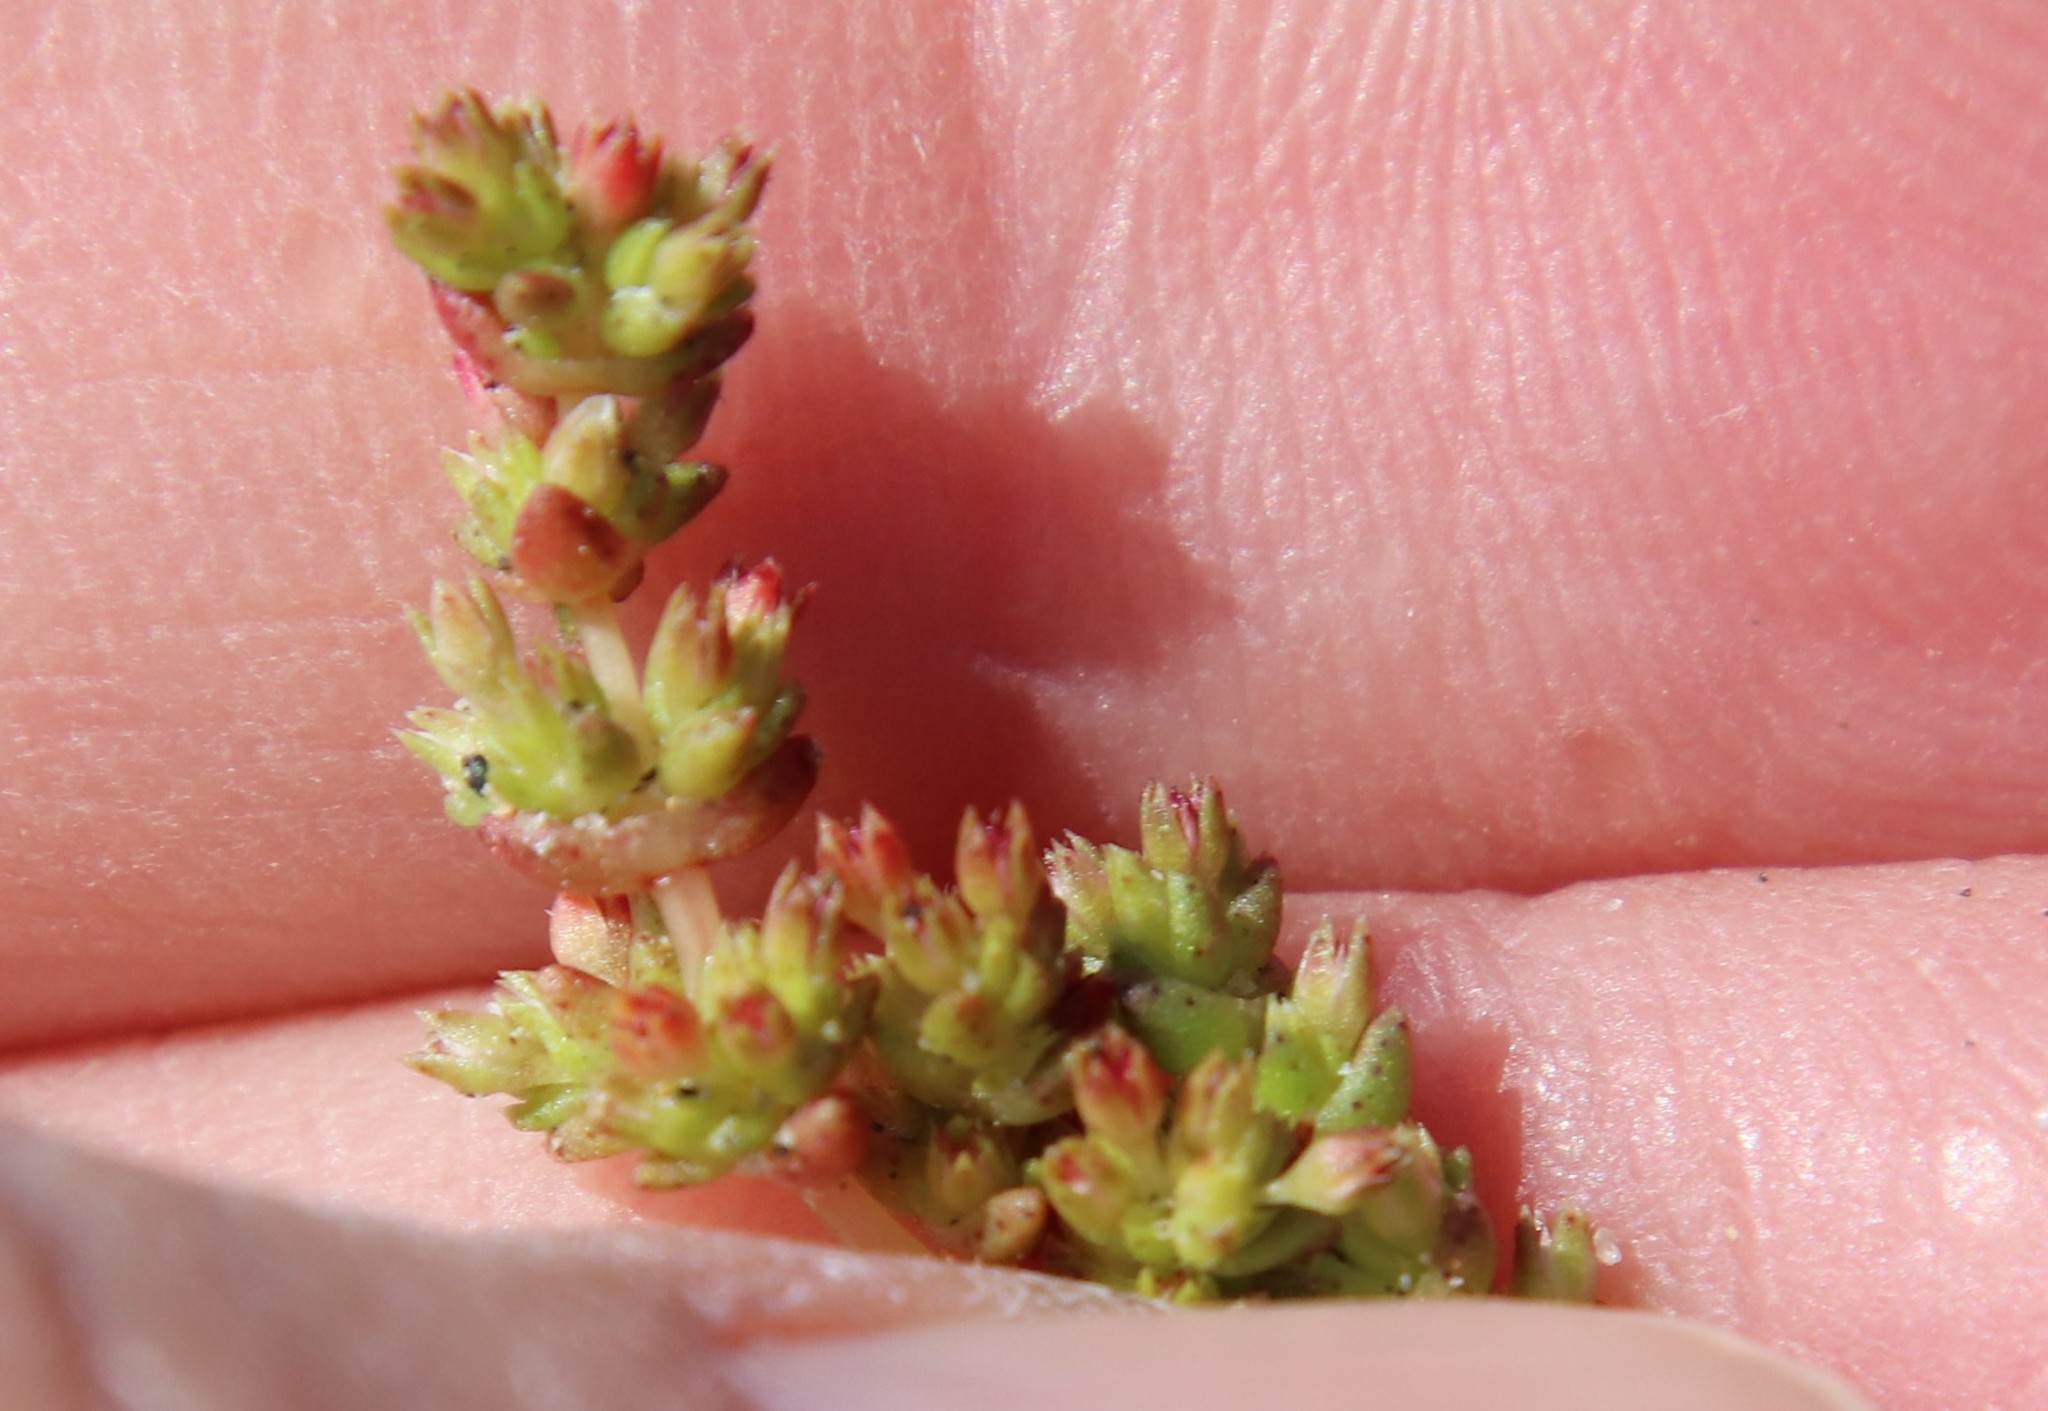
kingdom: Plantae
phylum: Tracheophyta
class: Magnoliopsida
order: Saxifragales
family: Crassulaceae
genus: Crassula
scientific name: Crassula connata
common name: Erect pygmyweed
